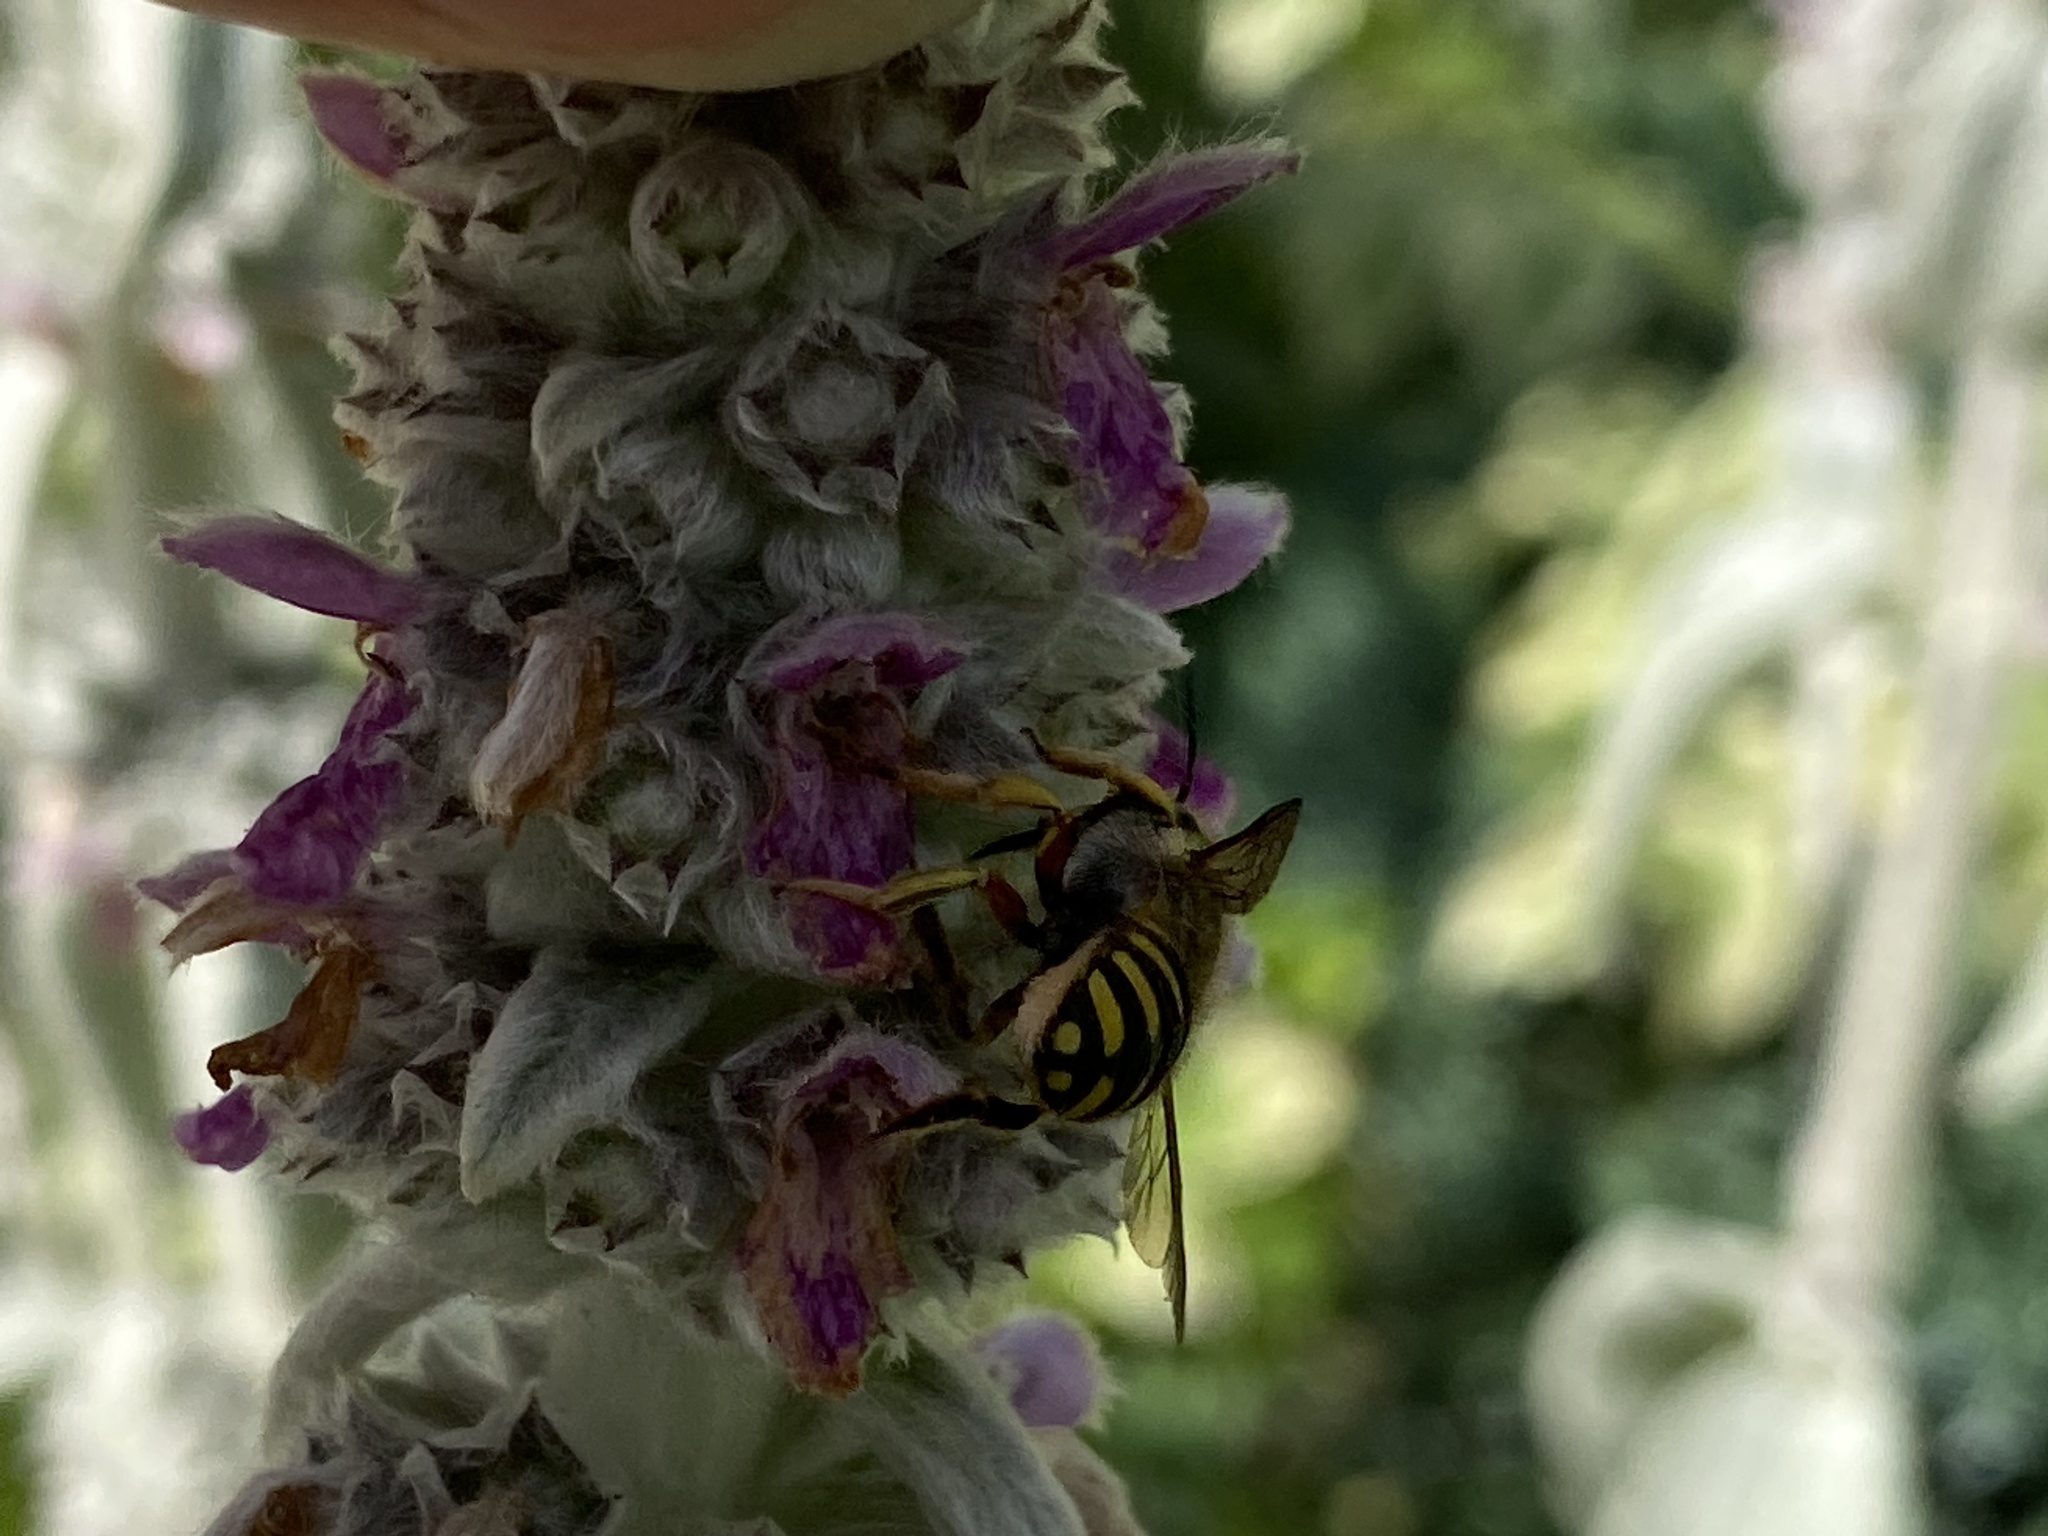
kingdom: Animalia
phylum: Arthropoda
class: Insecta
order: Hymenoptera
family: Megachilidae
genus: Anthidium
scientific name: Anthidium manicatum
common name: Wool carder bee
